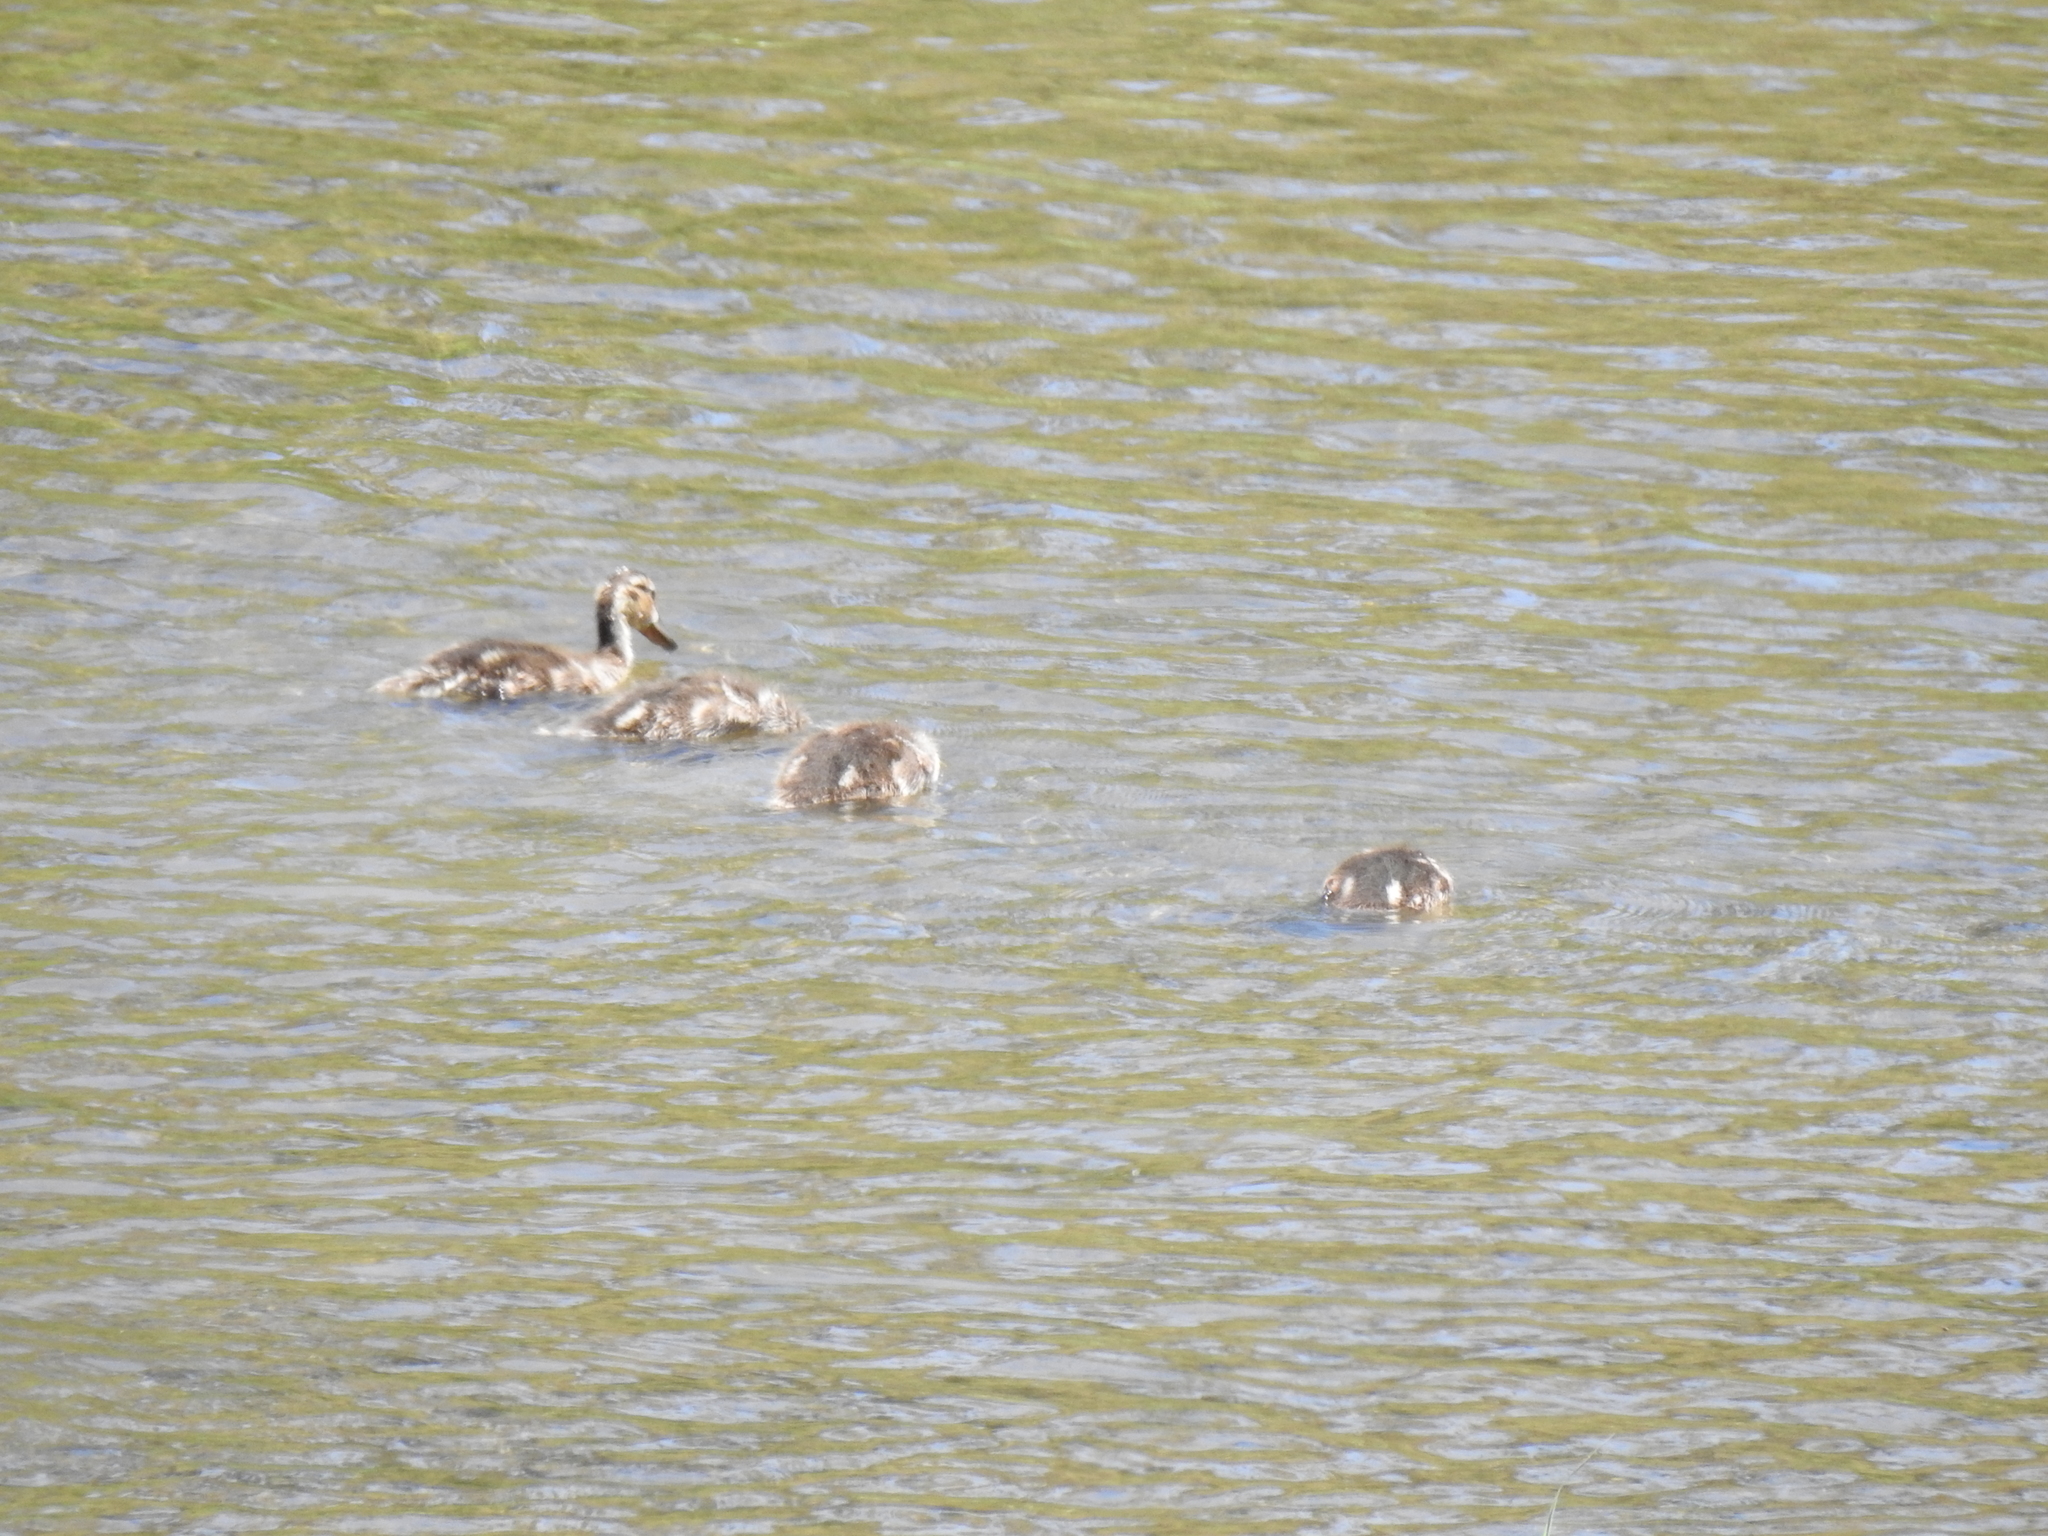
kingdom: Animalia
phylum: Chordata
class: Aves
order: Anseriformes
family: Anatidae
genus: Anas
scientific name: Anas platyrhynchos
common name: Mallard
